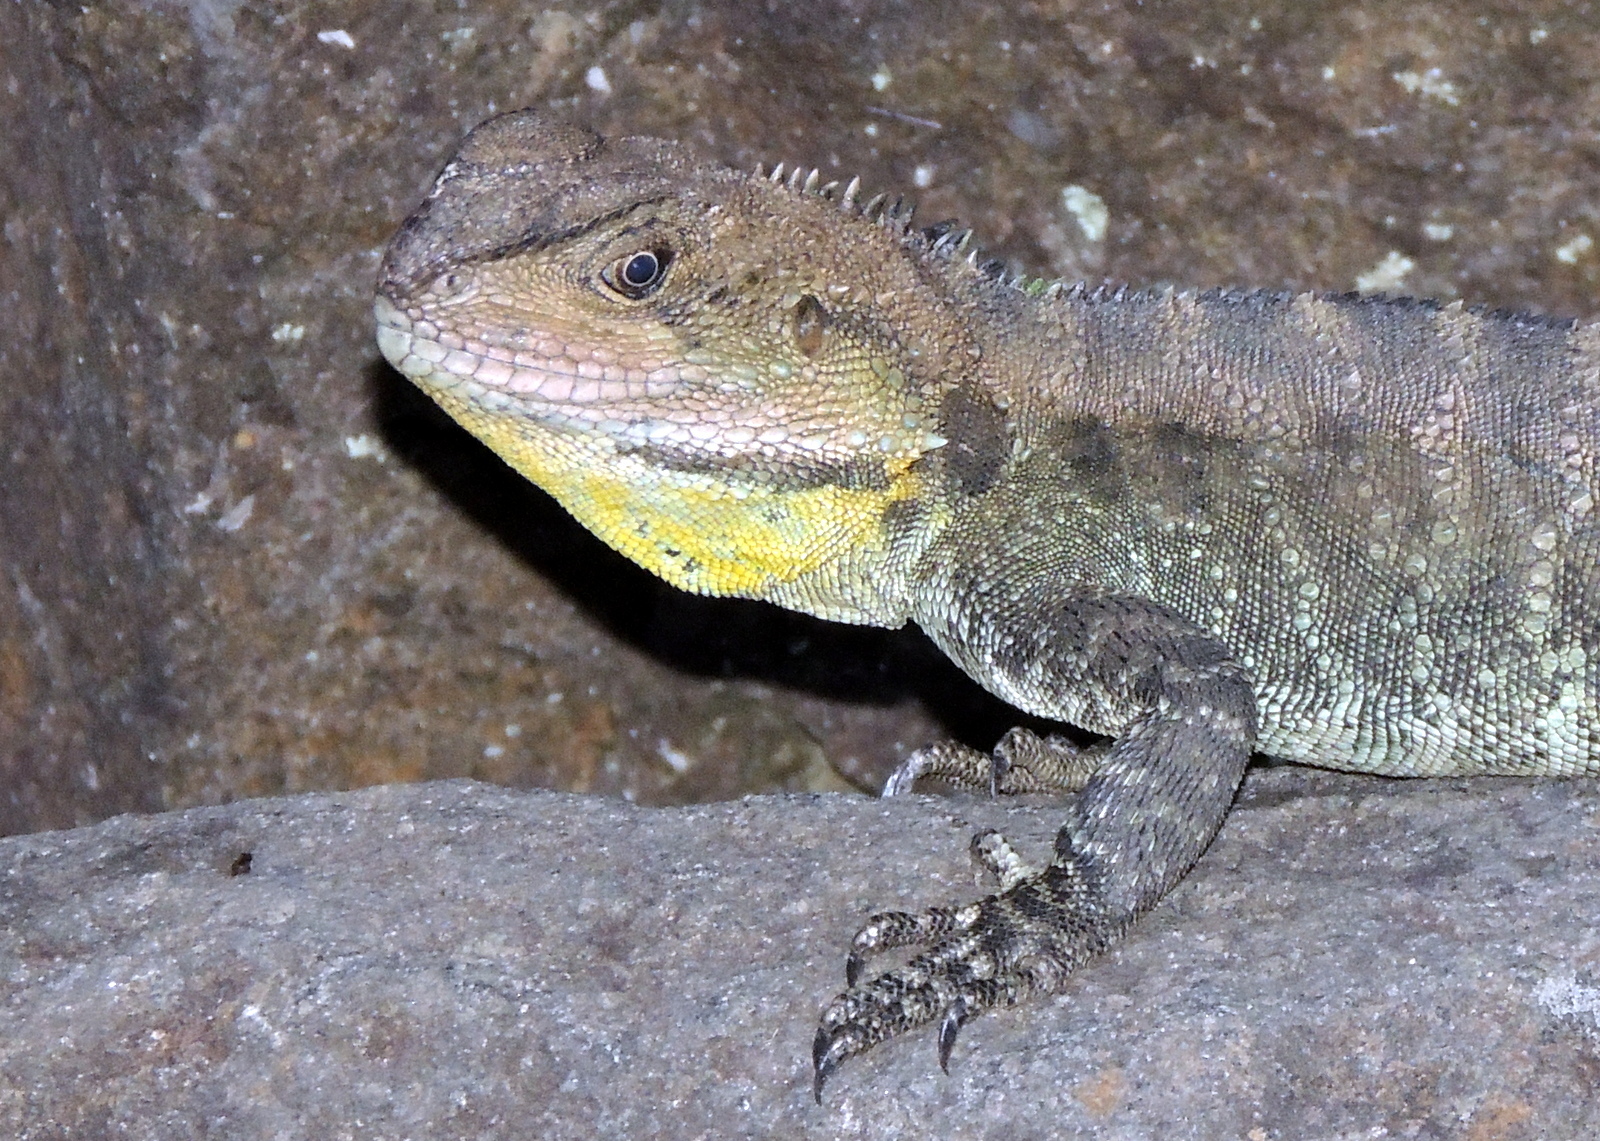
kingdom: Animalia
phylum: Chordata
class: Squamata
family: Agamidae
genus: Intellagama
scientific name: Intellagama lesueurii
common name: Eastern water dragon
